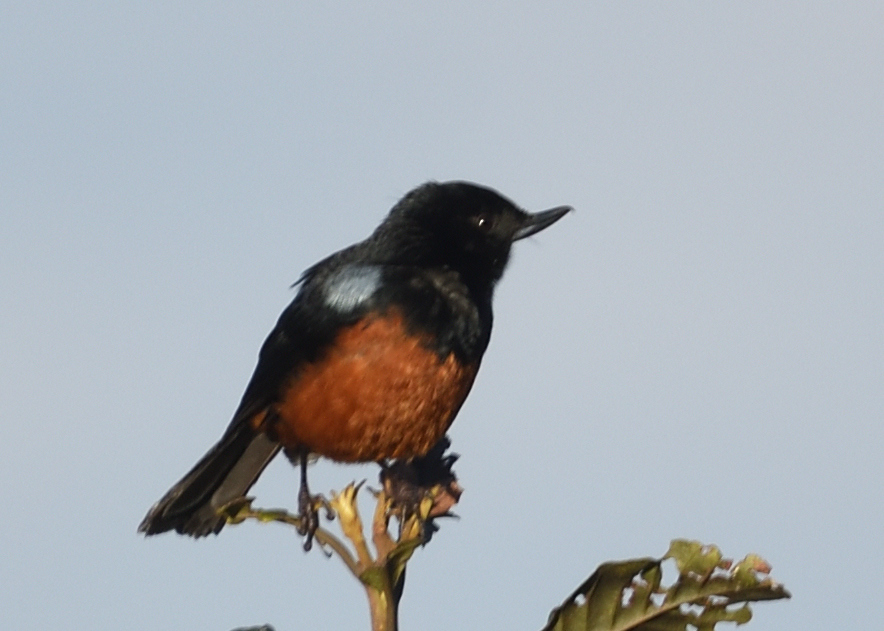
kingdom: Animalia
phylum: Chordata
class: Aves
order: Passeriformes
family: Thraupidae
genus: Diglossa
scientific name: Diglossa gloriosissima
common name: Chestnut-bellied flowerpiercer
